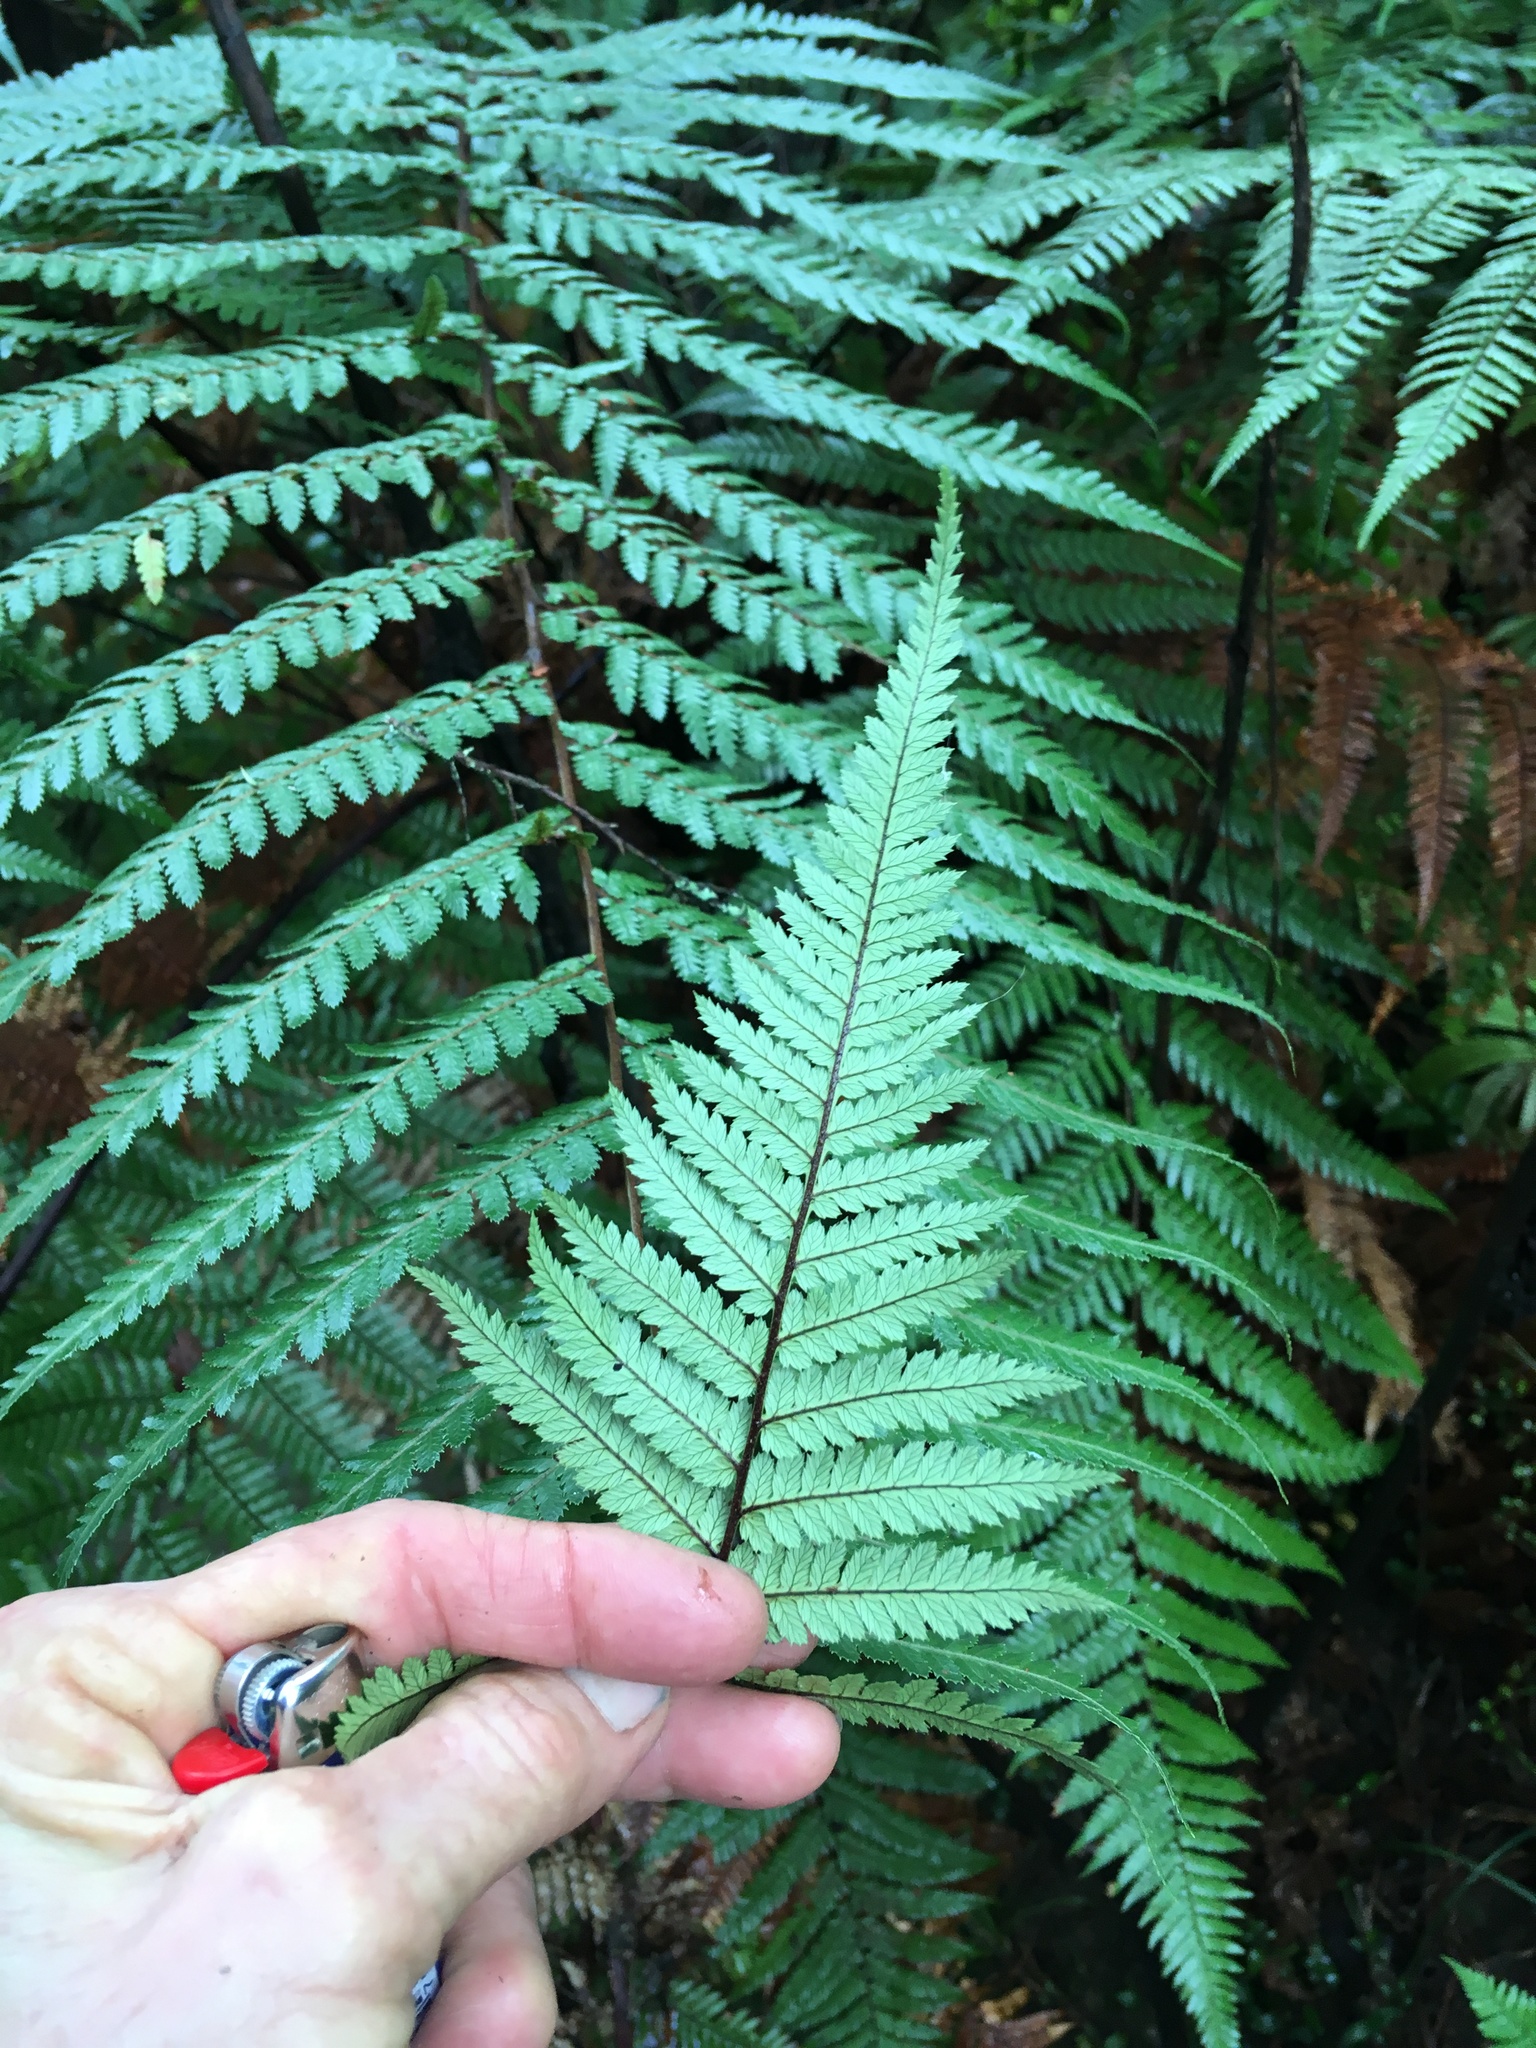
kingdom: Plantae
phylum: Tracheophyta
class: Polypodiopsida
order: Cyatheales
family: Dicksoniaceae
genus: Dicksonia
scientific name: Dicksonia squarrosa
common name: Hard treefern
